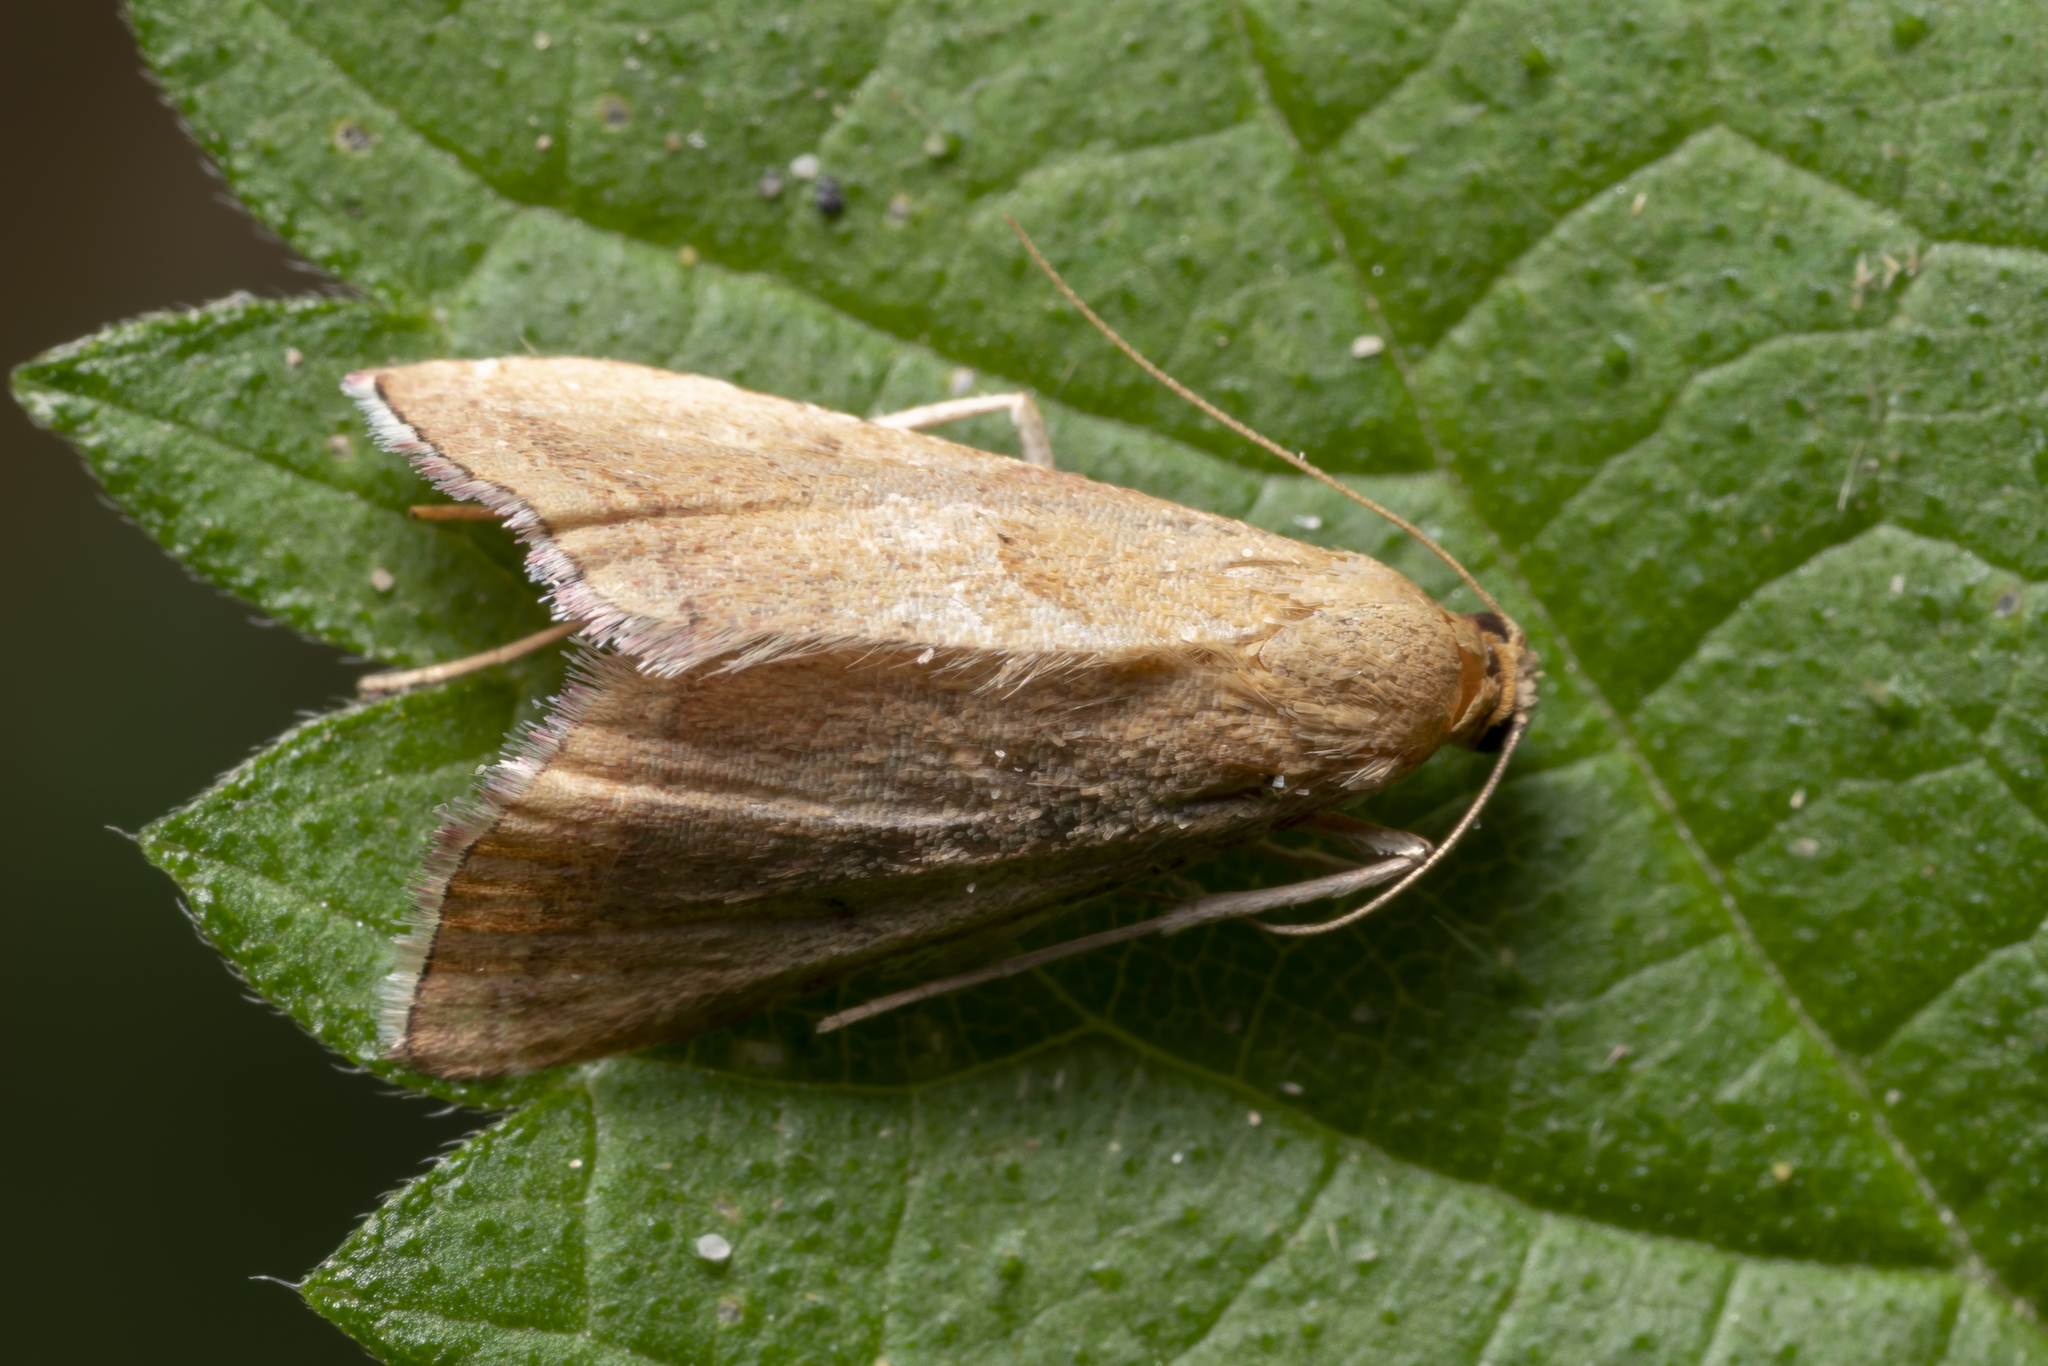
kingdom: Animalia
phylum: Arthropoda
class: Insecta
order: Lepidoptera
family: Pyralidae
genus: Endotricha
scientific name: Endotricha flammealis
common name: Rosy tabby
